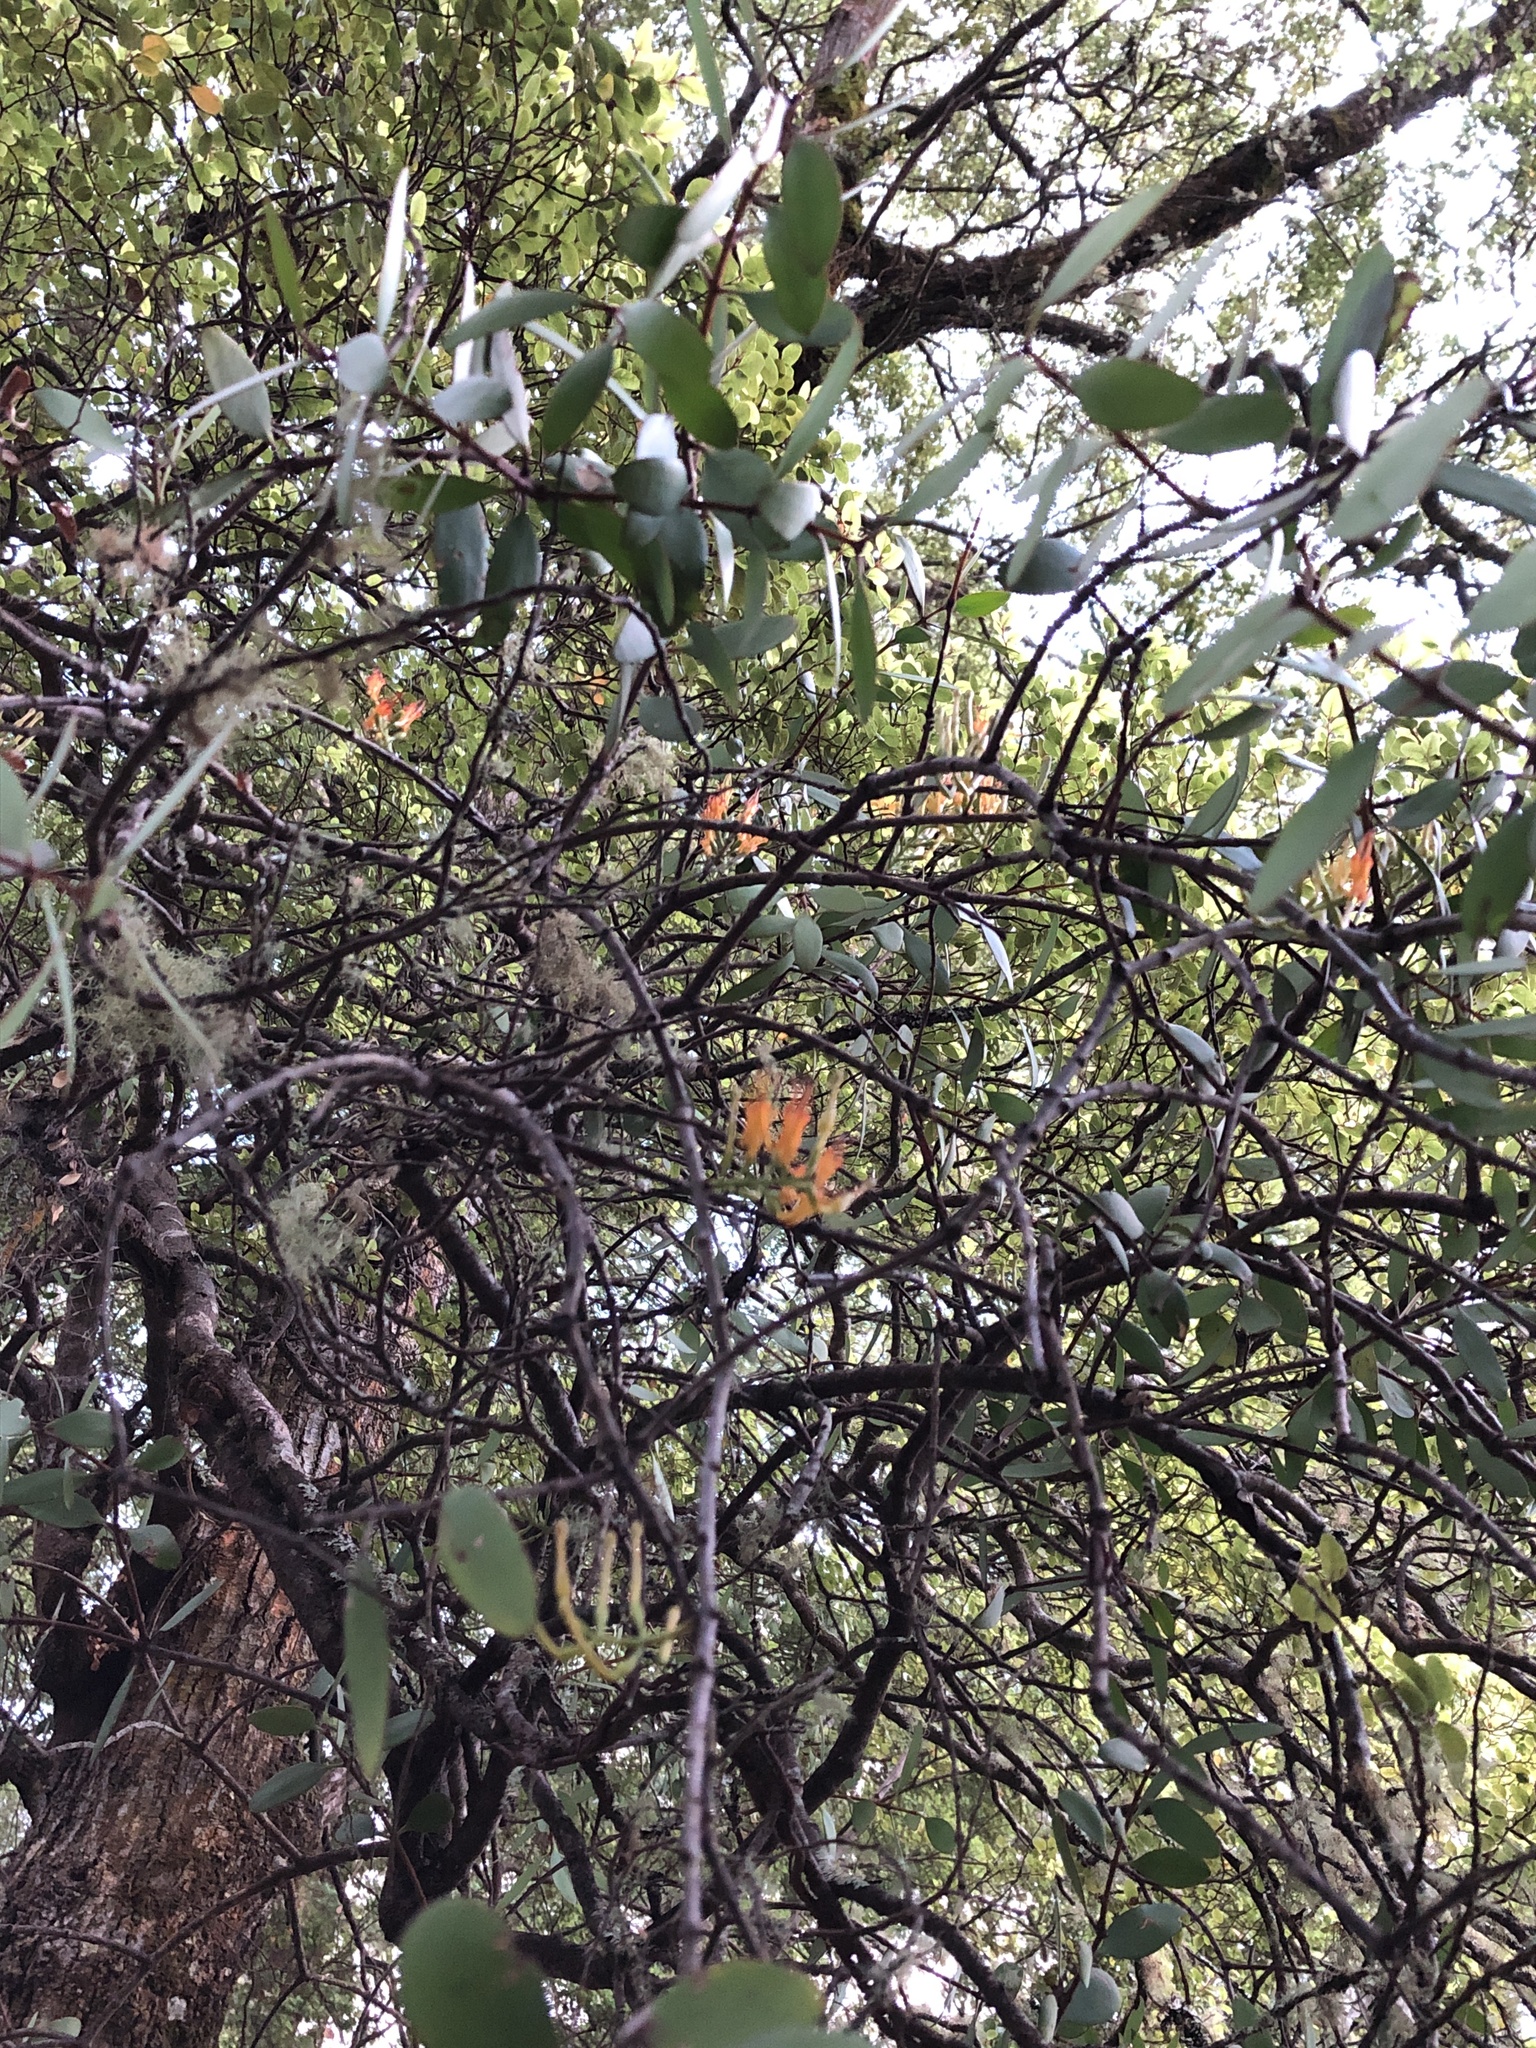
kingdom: Plantae
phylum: Tracheophyta
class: Magnoliopsida
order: Santalales
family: Loranthaceae
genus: Alepis
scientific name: Alepis flavida
